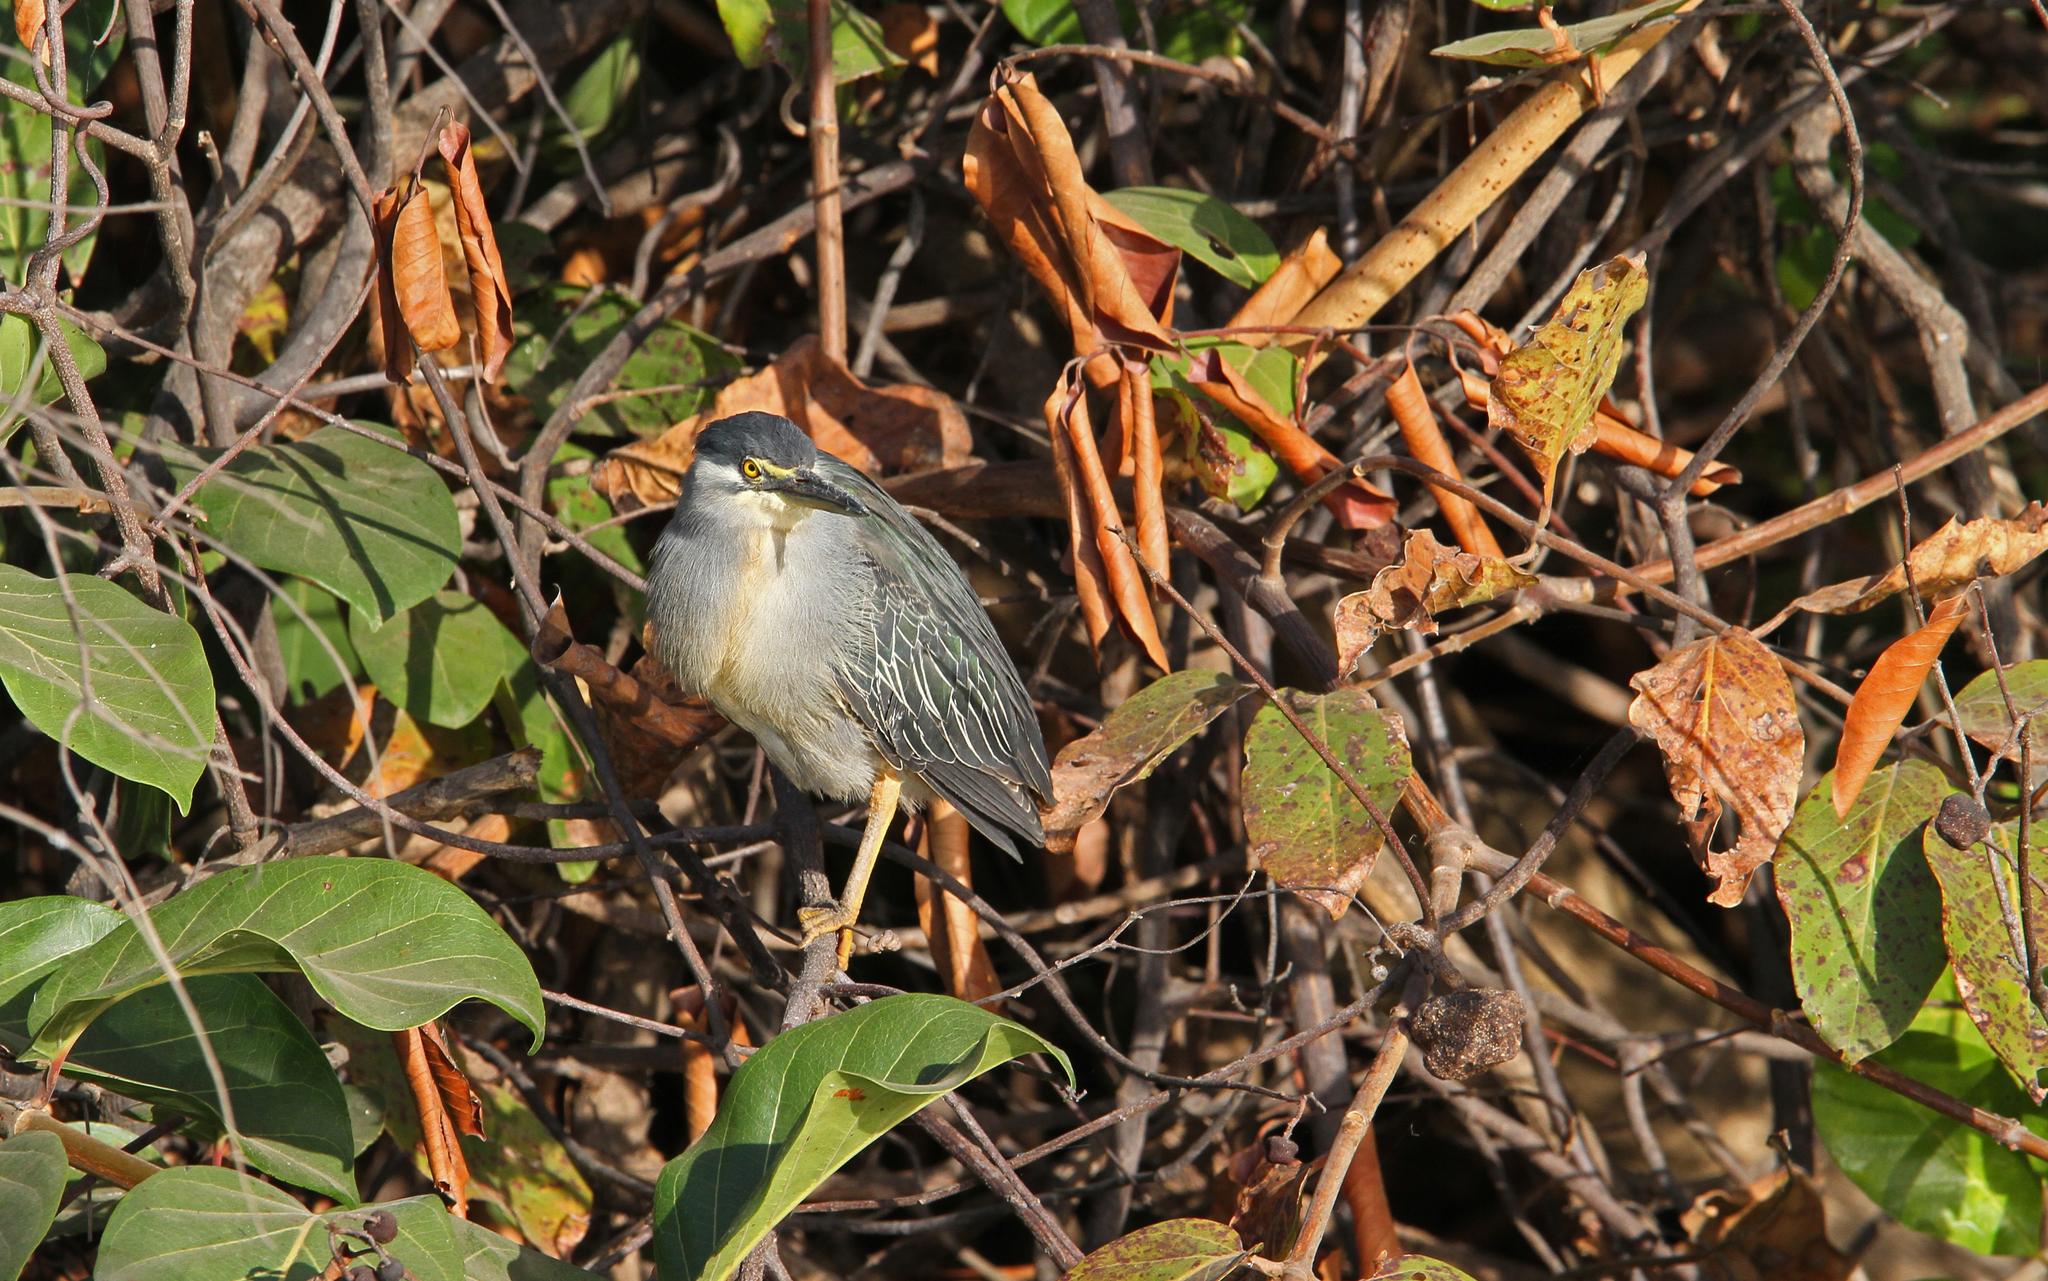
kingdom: Animalia
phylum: Chordata
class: Aves
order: Pelecaniformes
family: Ardeidae
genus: Butorides
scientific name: Butorides striata
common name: Striated heron
